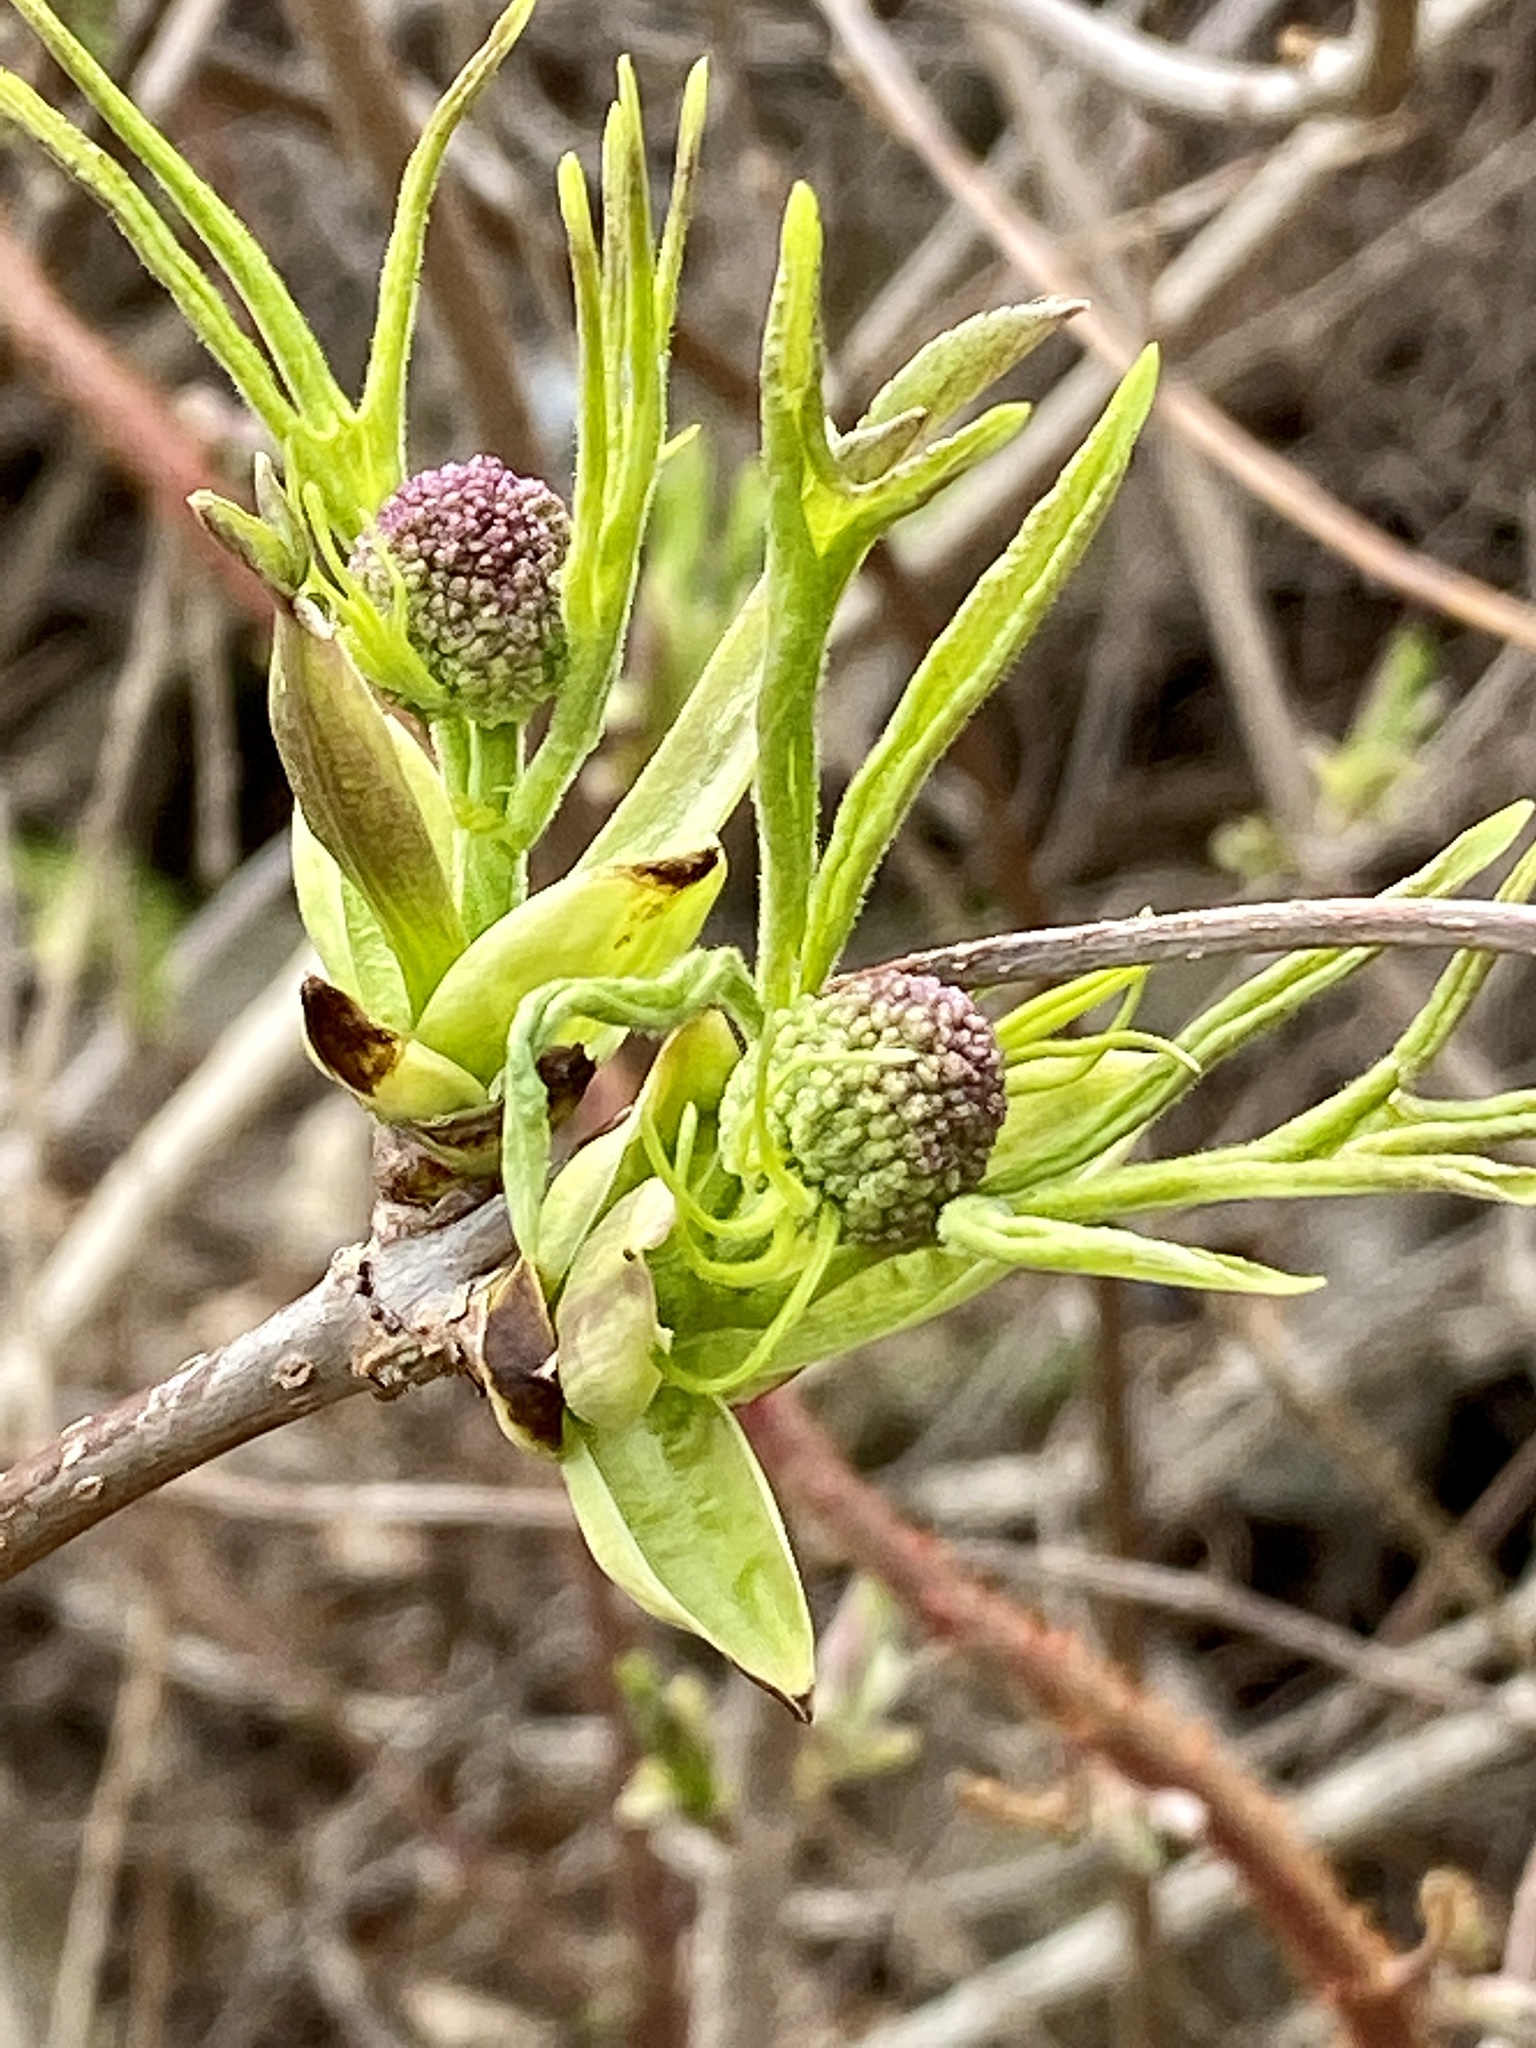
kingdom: Plantae
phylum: Tracheophyta
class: Magnoliopsida
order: Dipsacales
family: Viburnaceae
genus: Sambucus
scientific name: Sambucus racemosa
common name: Red-berried elder
